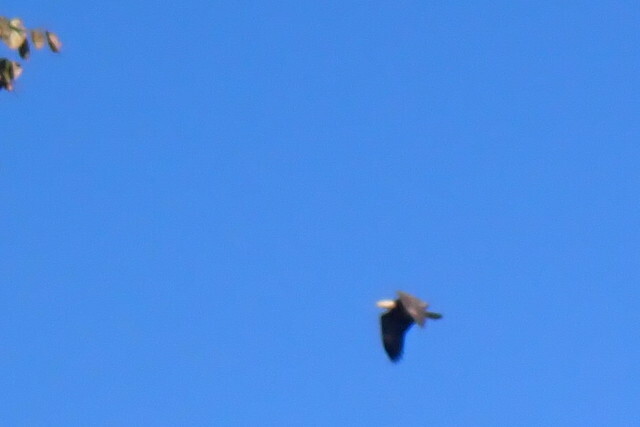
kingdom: Animalia
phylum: Chordata
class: Aves
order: Accipitriformes
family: Accipitridae
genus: Haliaeetus
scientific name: Haliaeetus leucocephalus
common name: Bald eagle
